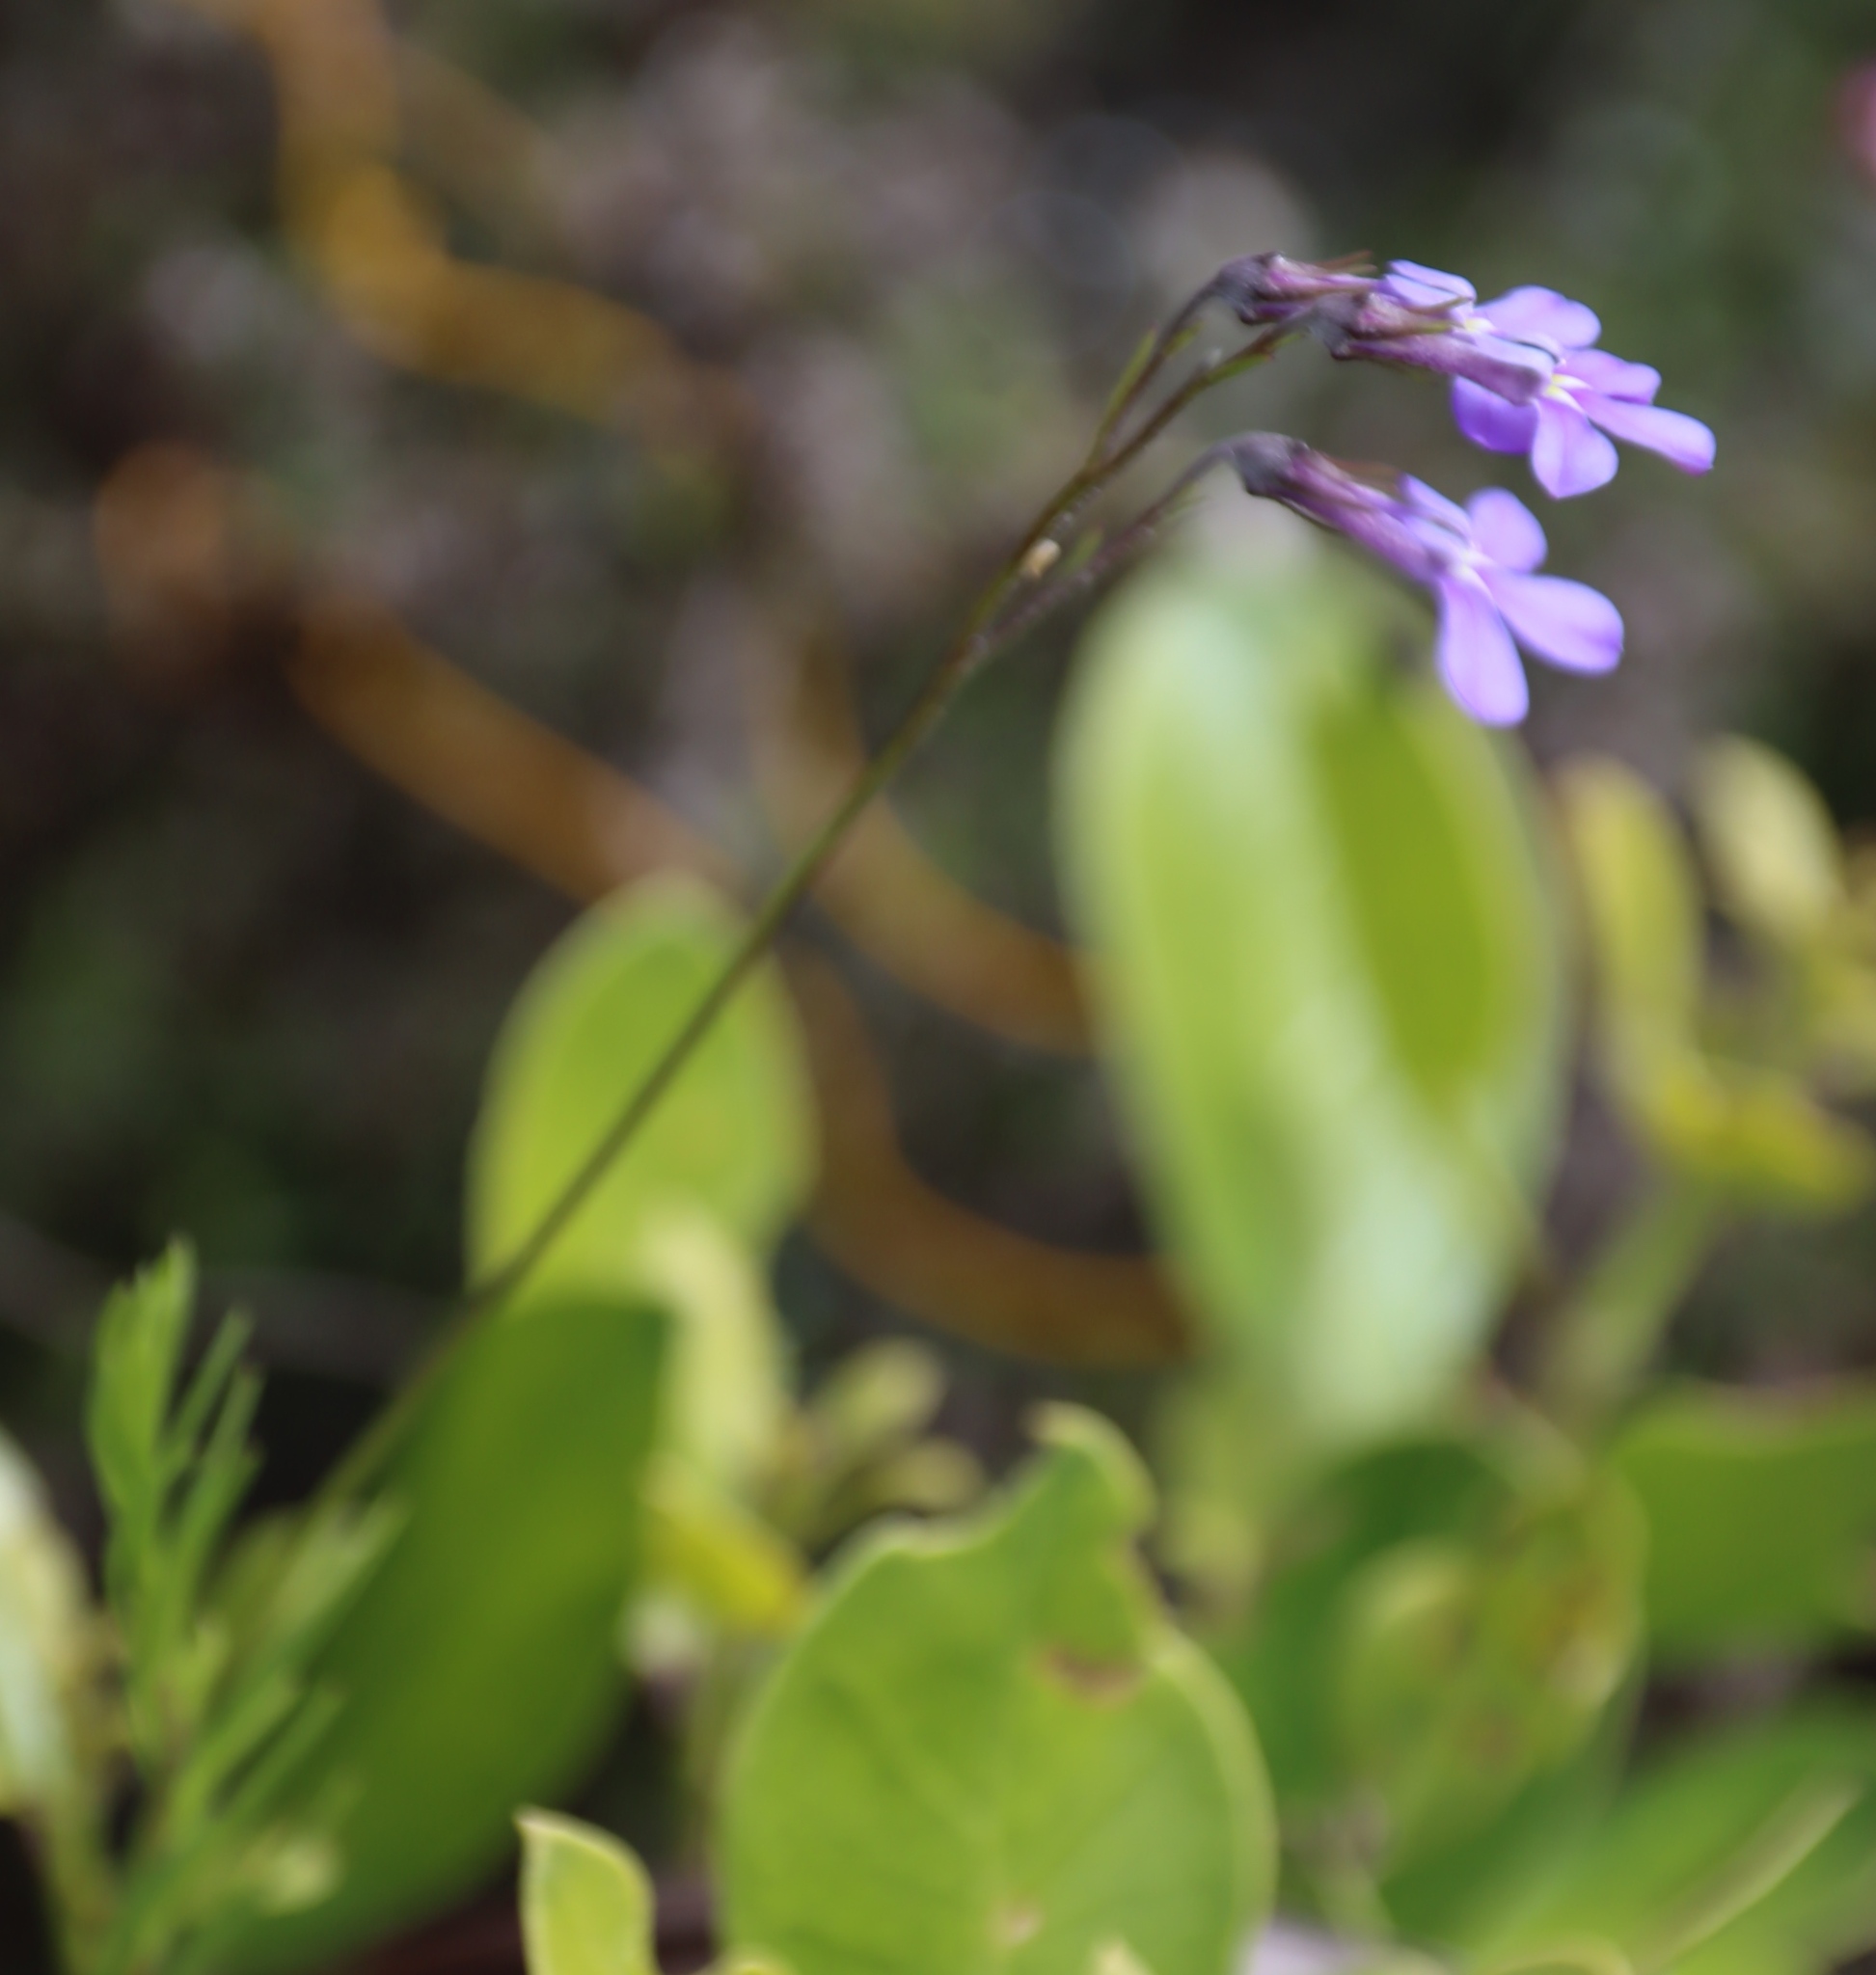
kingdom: Plantae
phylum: Tracheophyta
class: Magnoliopsida
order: Asterales
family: Campanulaceae
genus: Lobelia
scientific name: Lobelia pinifolia
